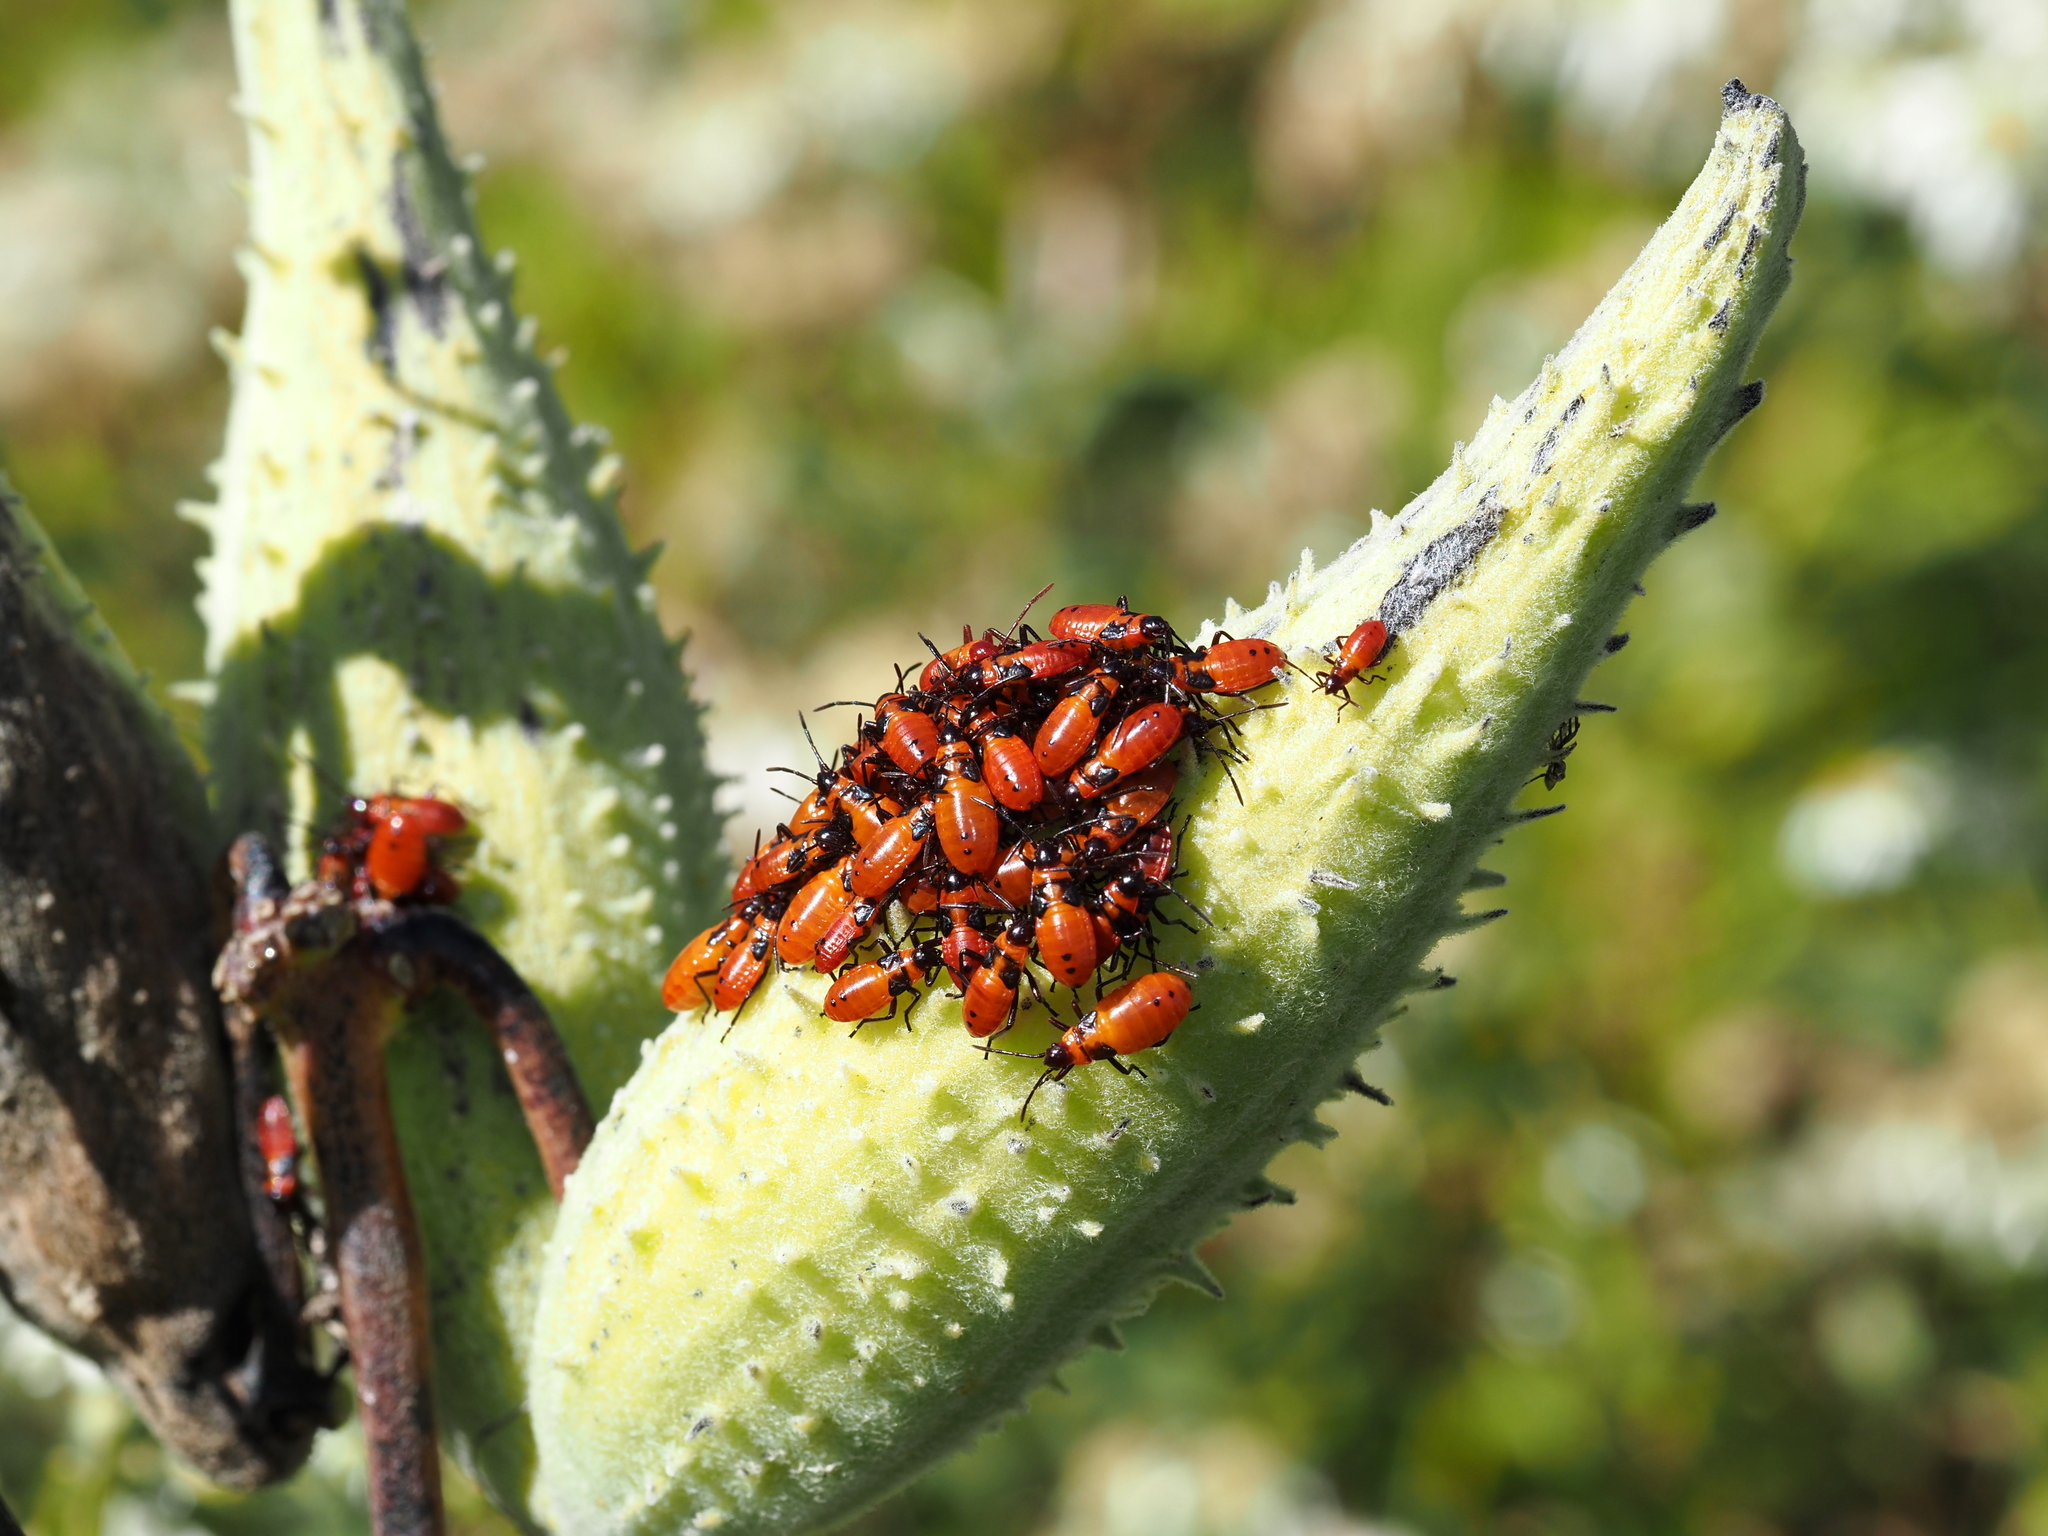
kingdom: Animalia
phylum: Arthropoda
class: Insecta
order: Hemiptera
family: Lygaeidae
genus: Oncopeltus
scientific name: Oncopeltus fasciatus
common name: Large milkweed bug
